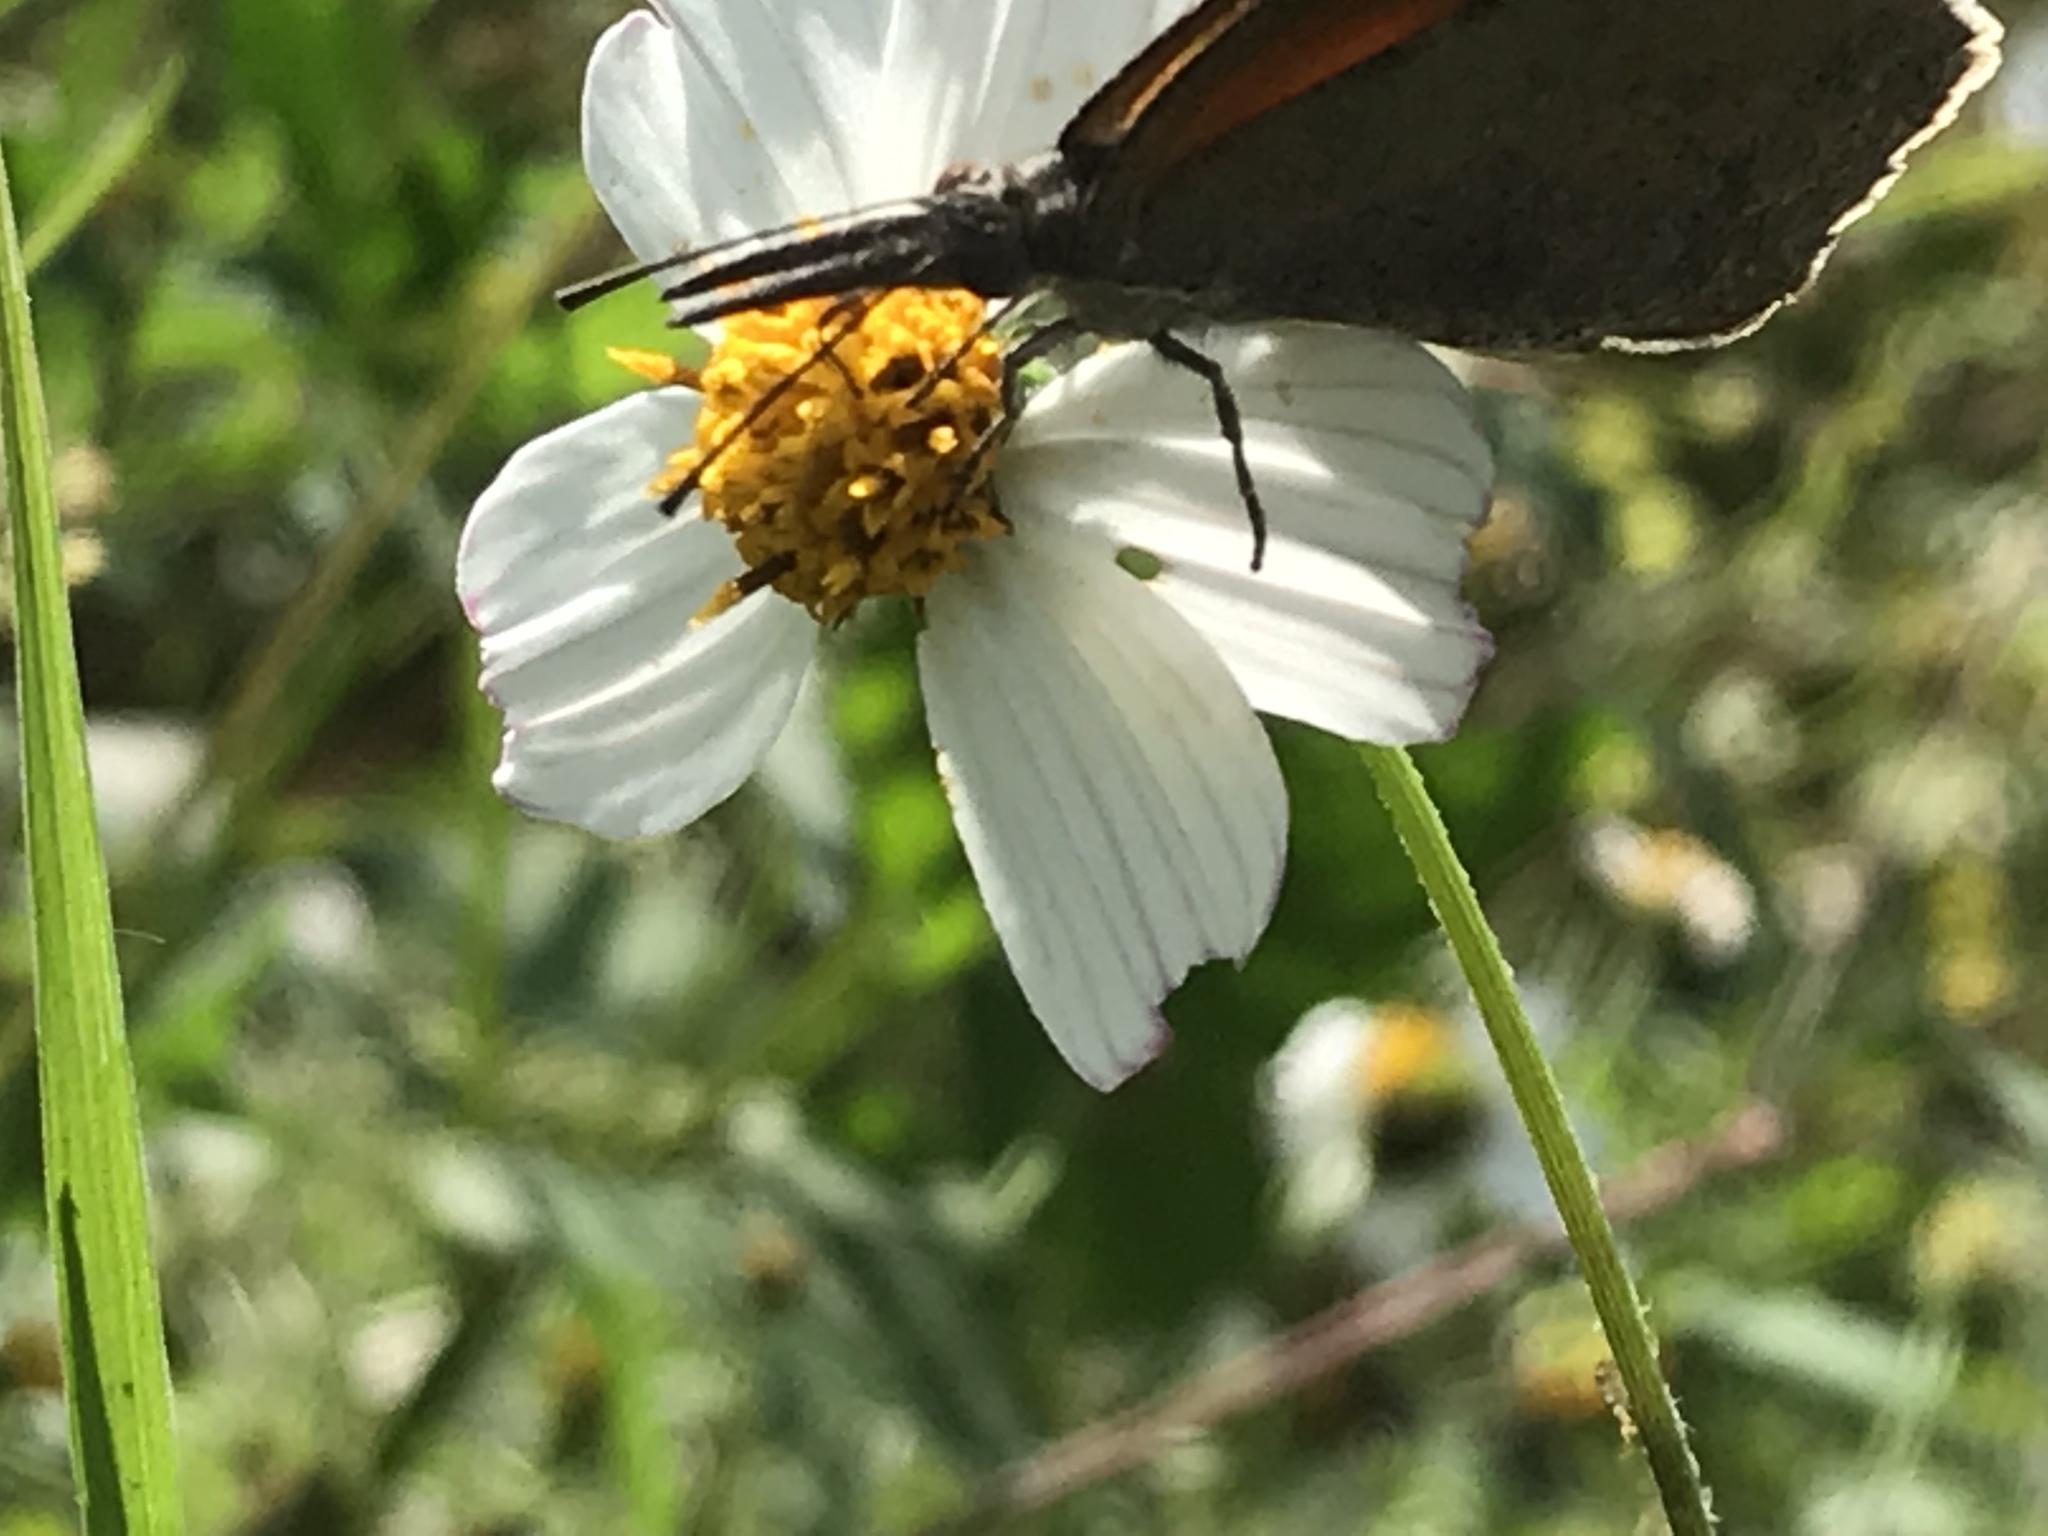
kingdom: Animalia
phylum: Arthropoda
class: Insecta
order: Lepidoptera
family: Nymphalidae
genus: Libytheana
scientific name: Libytheana carinenta
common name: American snout
